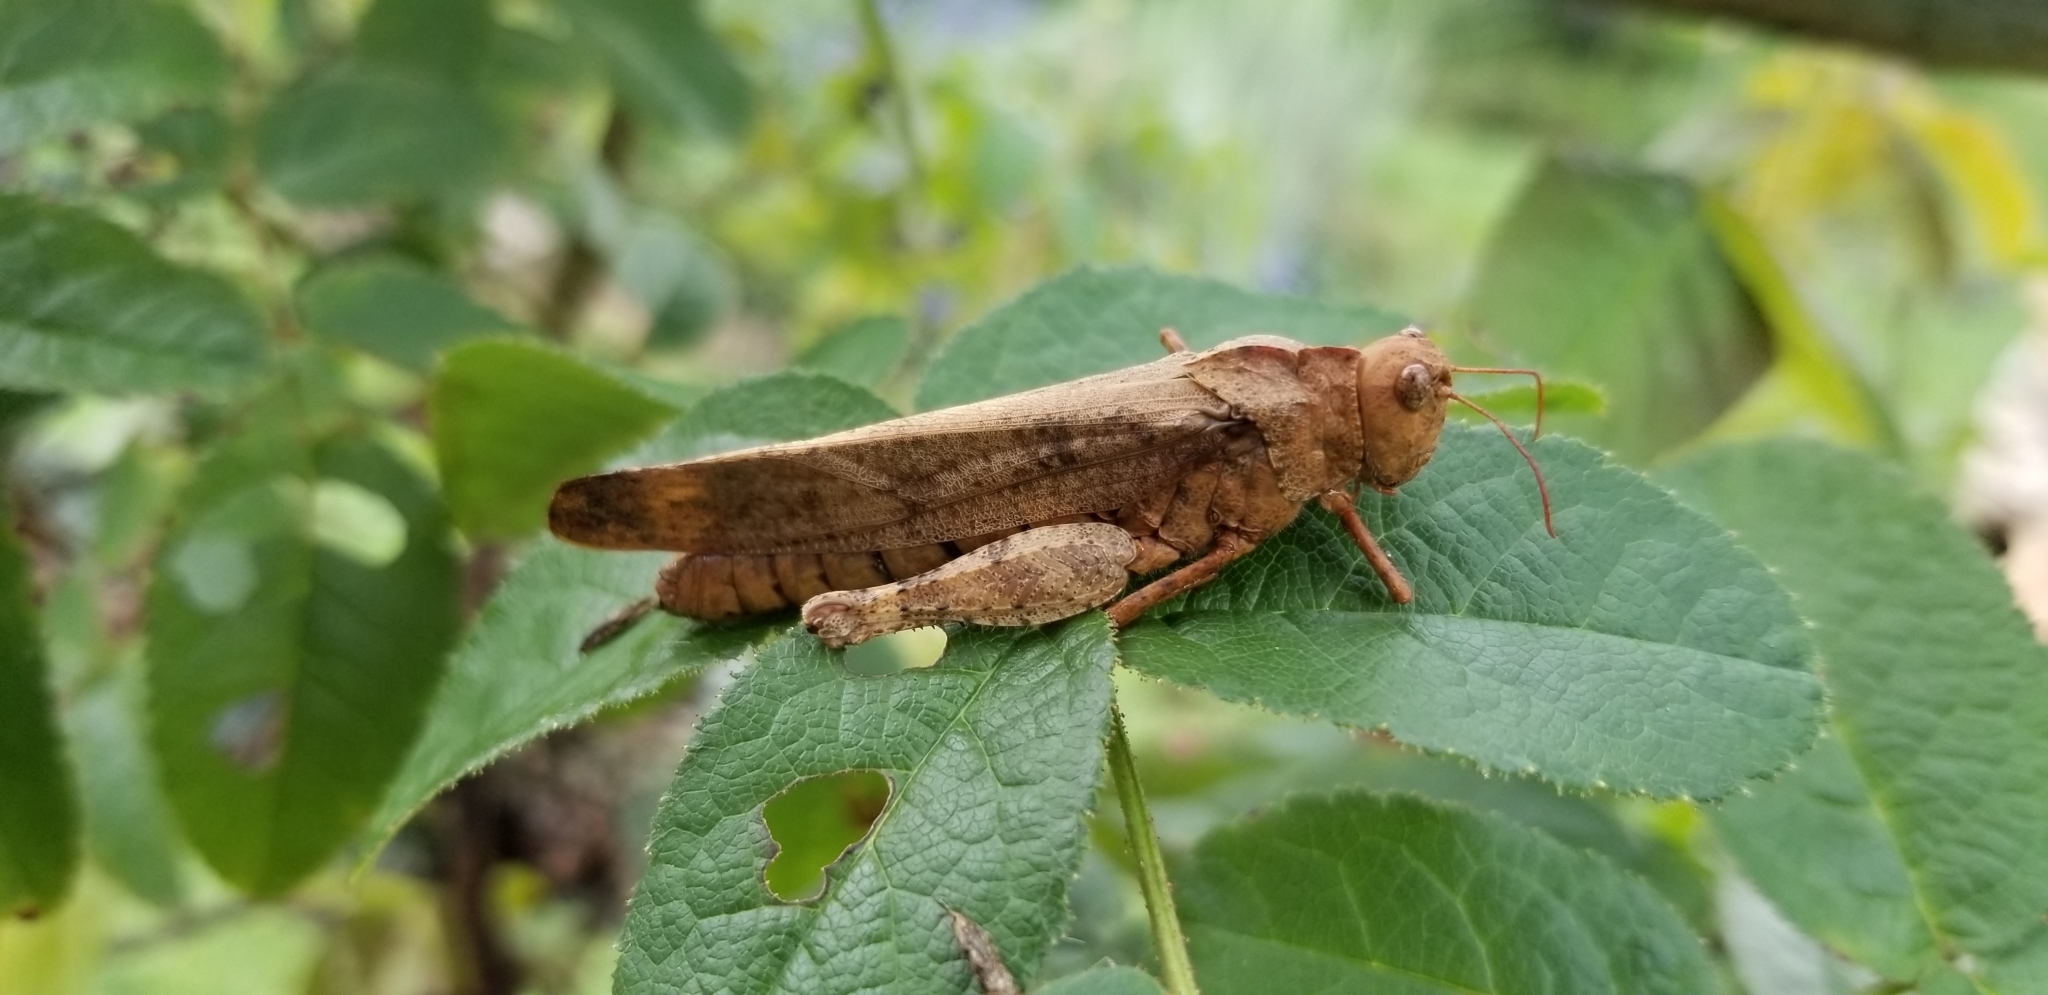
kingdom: Animalia
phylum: Arthropoda
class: Insecta
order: Orthoptera
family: Acrididae
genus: Dissosteira
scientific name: Dissosteira carolina
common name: Carolina grasshopper
